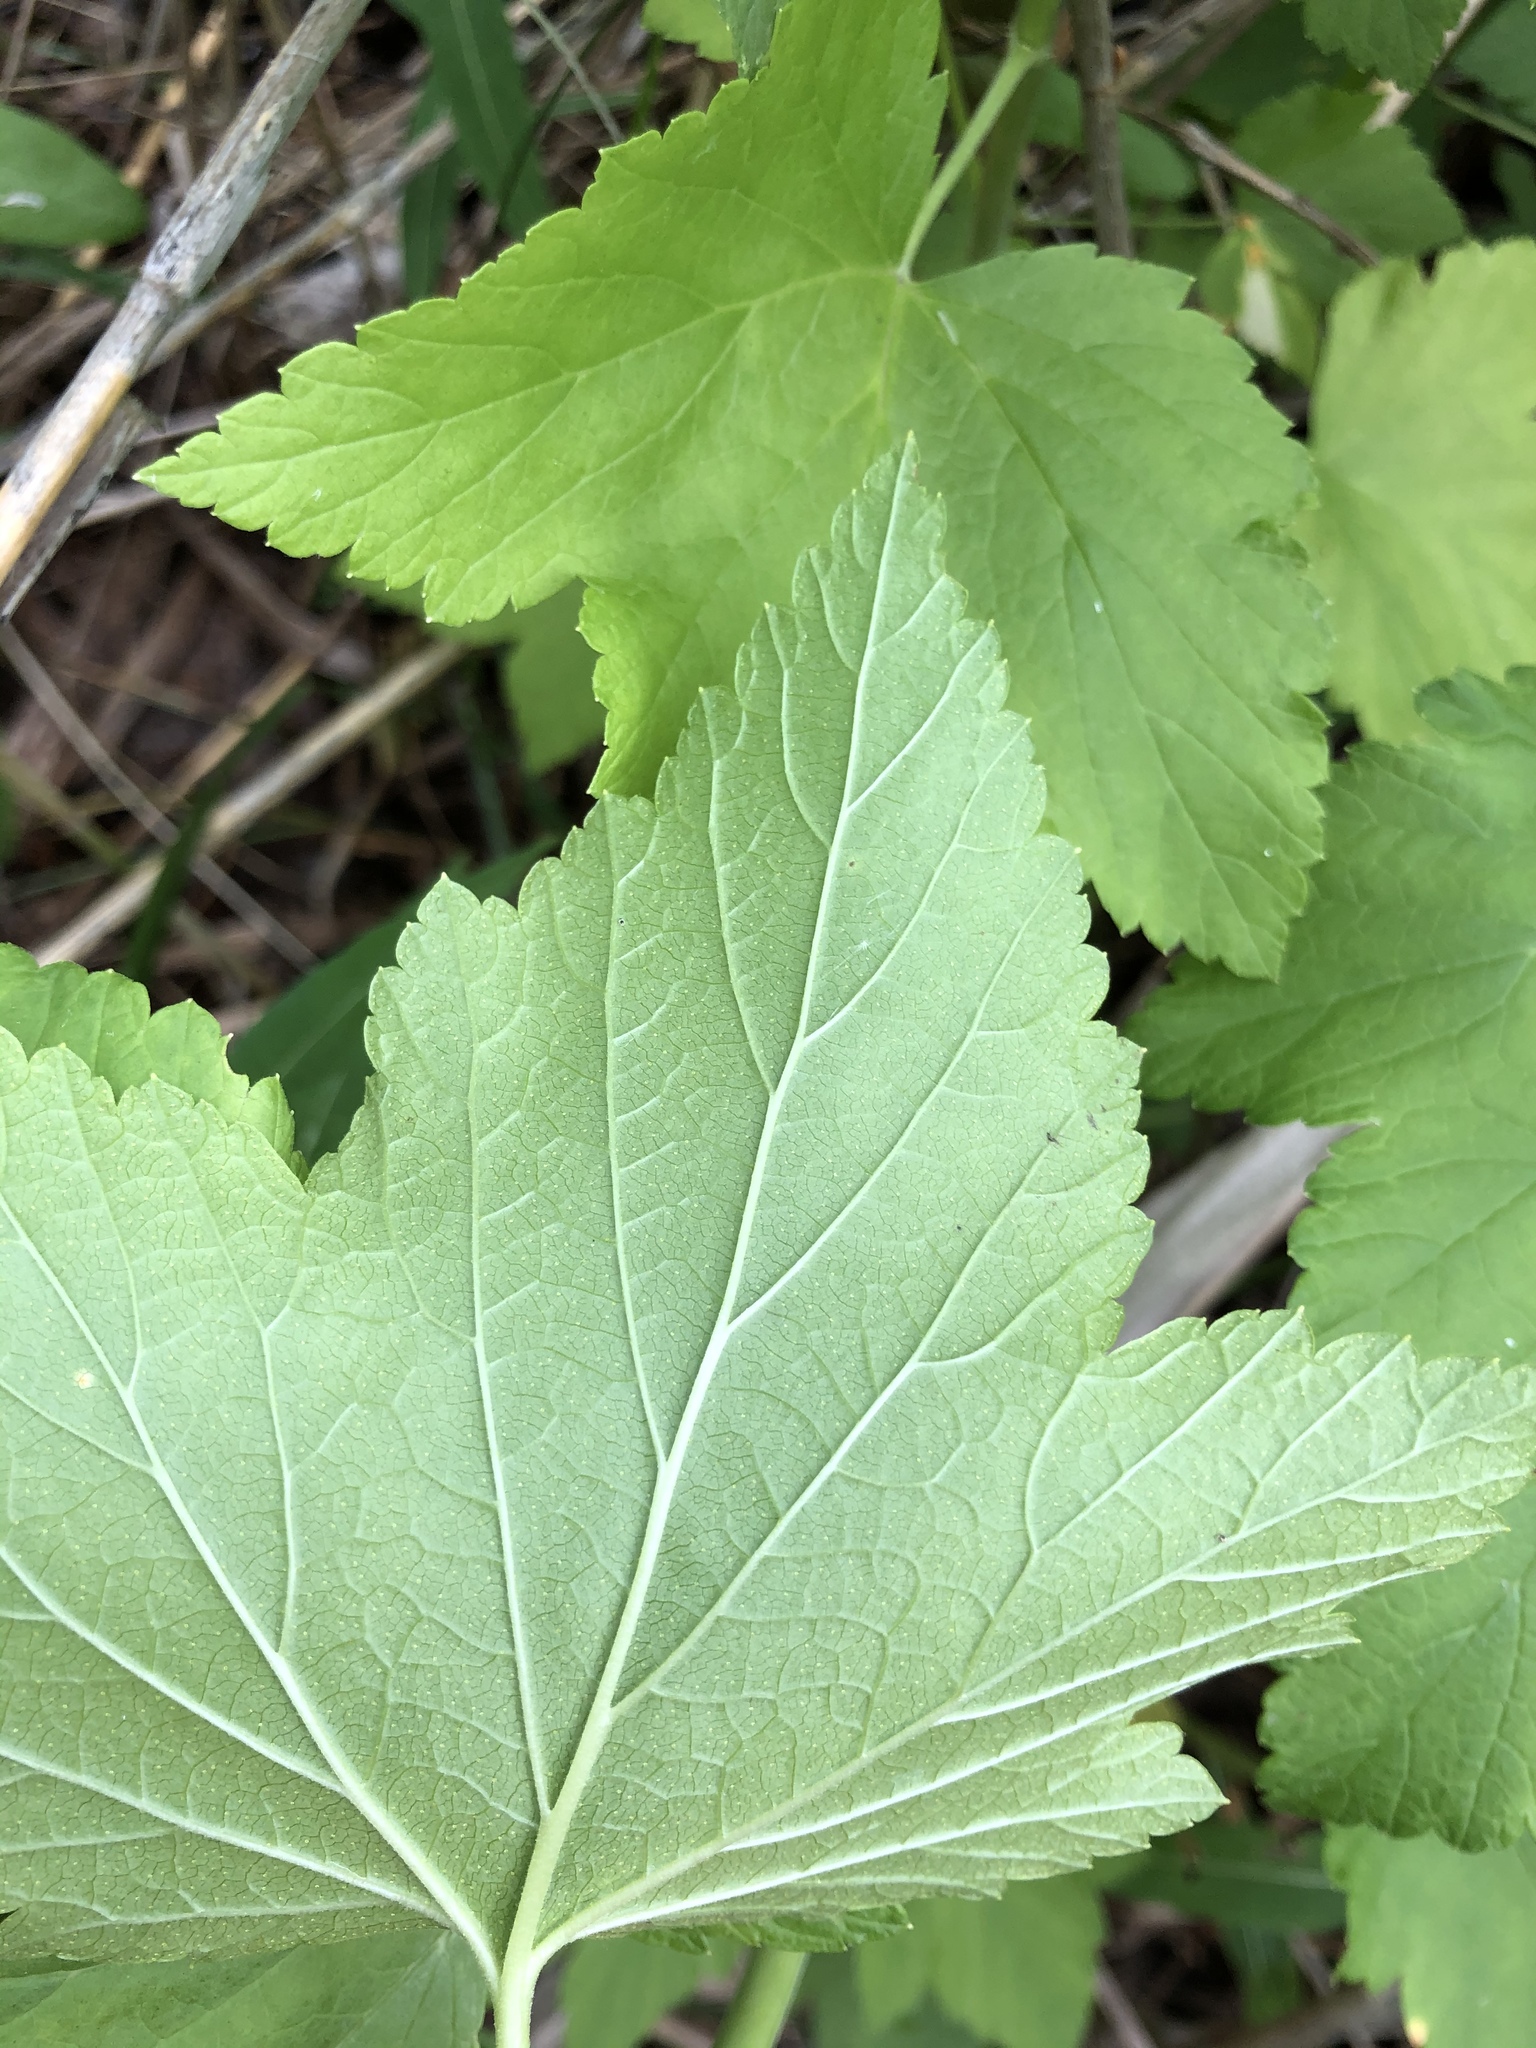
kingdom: Plantae
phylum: Tracheophyta
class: Magnoliopsida
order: Saxifragales
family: Grossulariaceae
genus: Ribes
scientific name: Ribes nigrum
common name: Black currant
